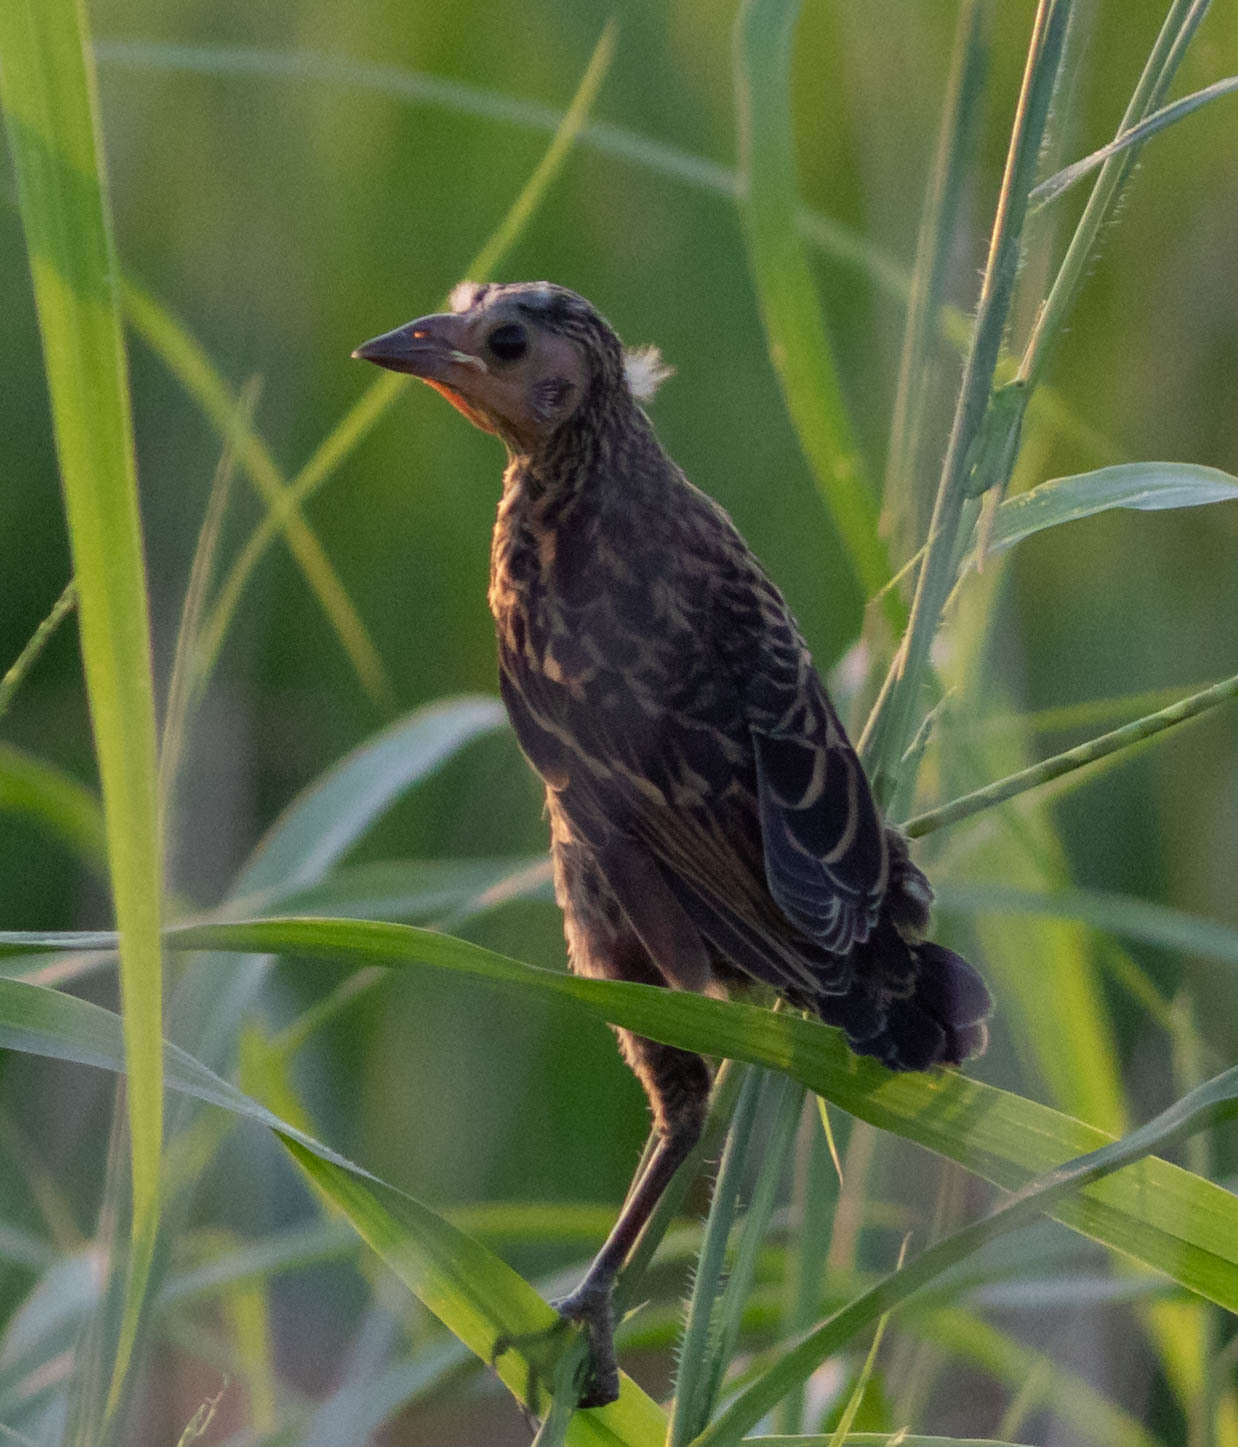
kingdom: Animalia
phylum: Chordata
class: Aves
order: Passeriformes
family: Icteridae
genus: Agelaius
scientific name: Agelaius phoeniceus
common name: Red-winged blackbird
